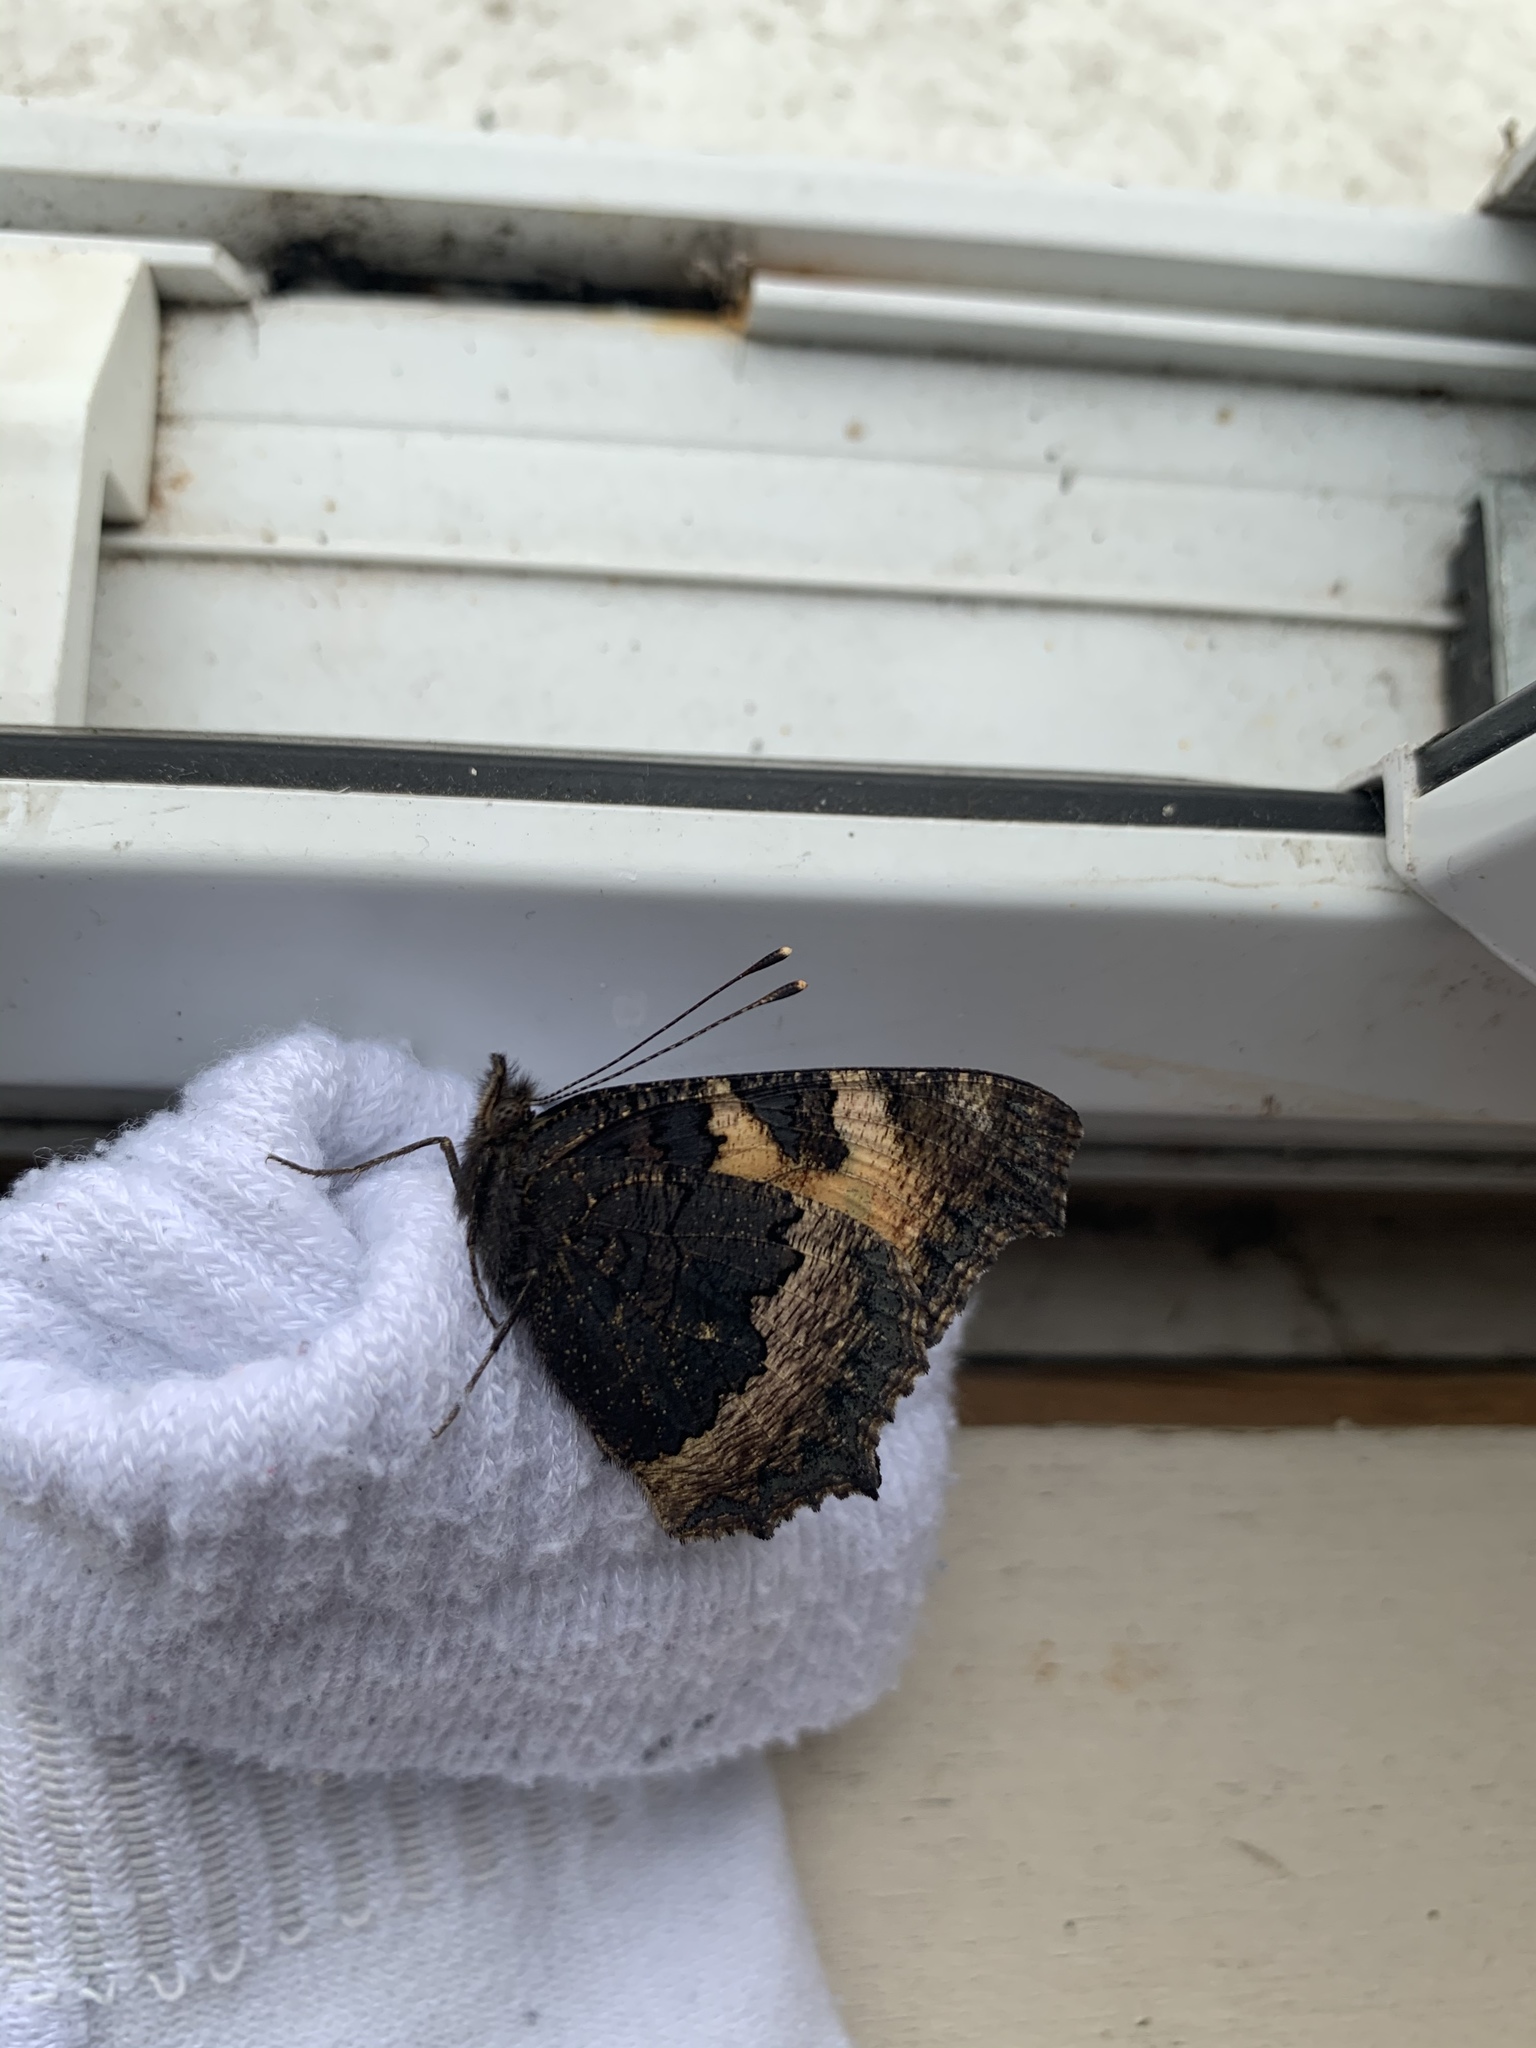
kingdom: Animalia
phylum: Arthropoda
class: Insecta
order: Lepidoptera
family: Nymphalidae
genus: Aglais
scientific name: Aglais urticae
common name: Small tortoiseshell
